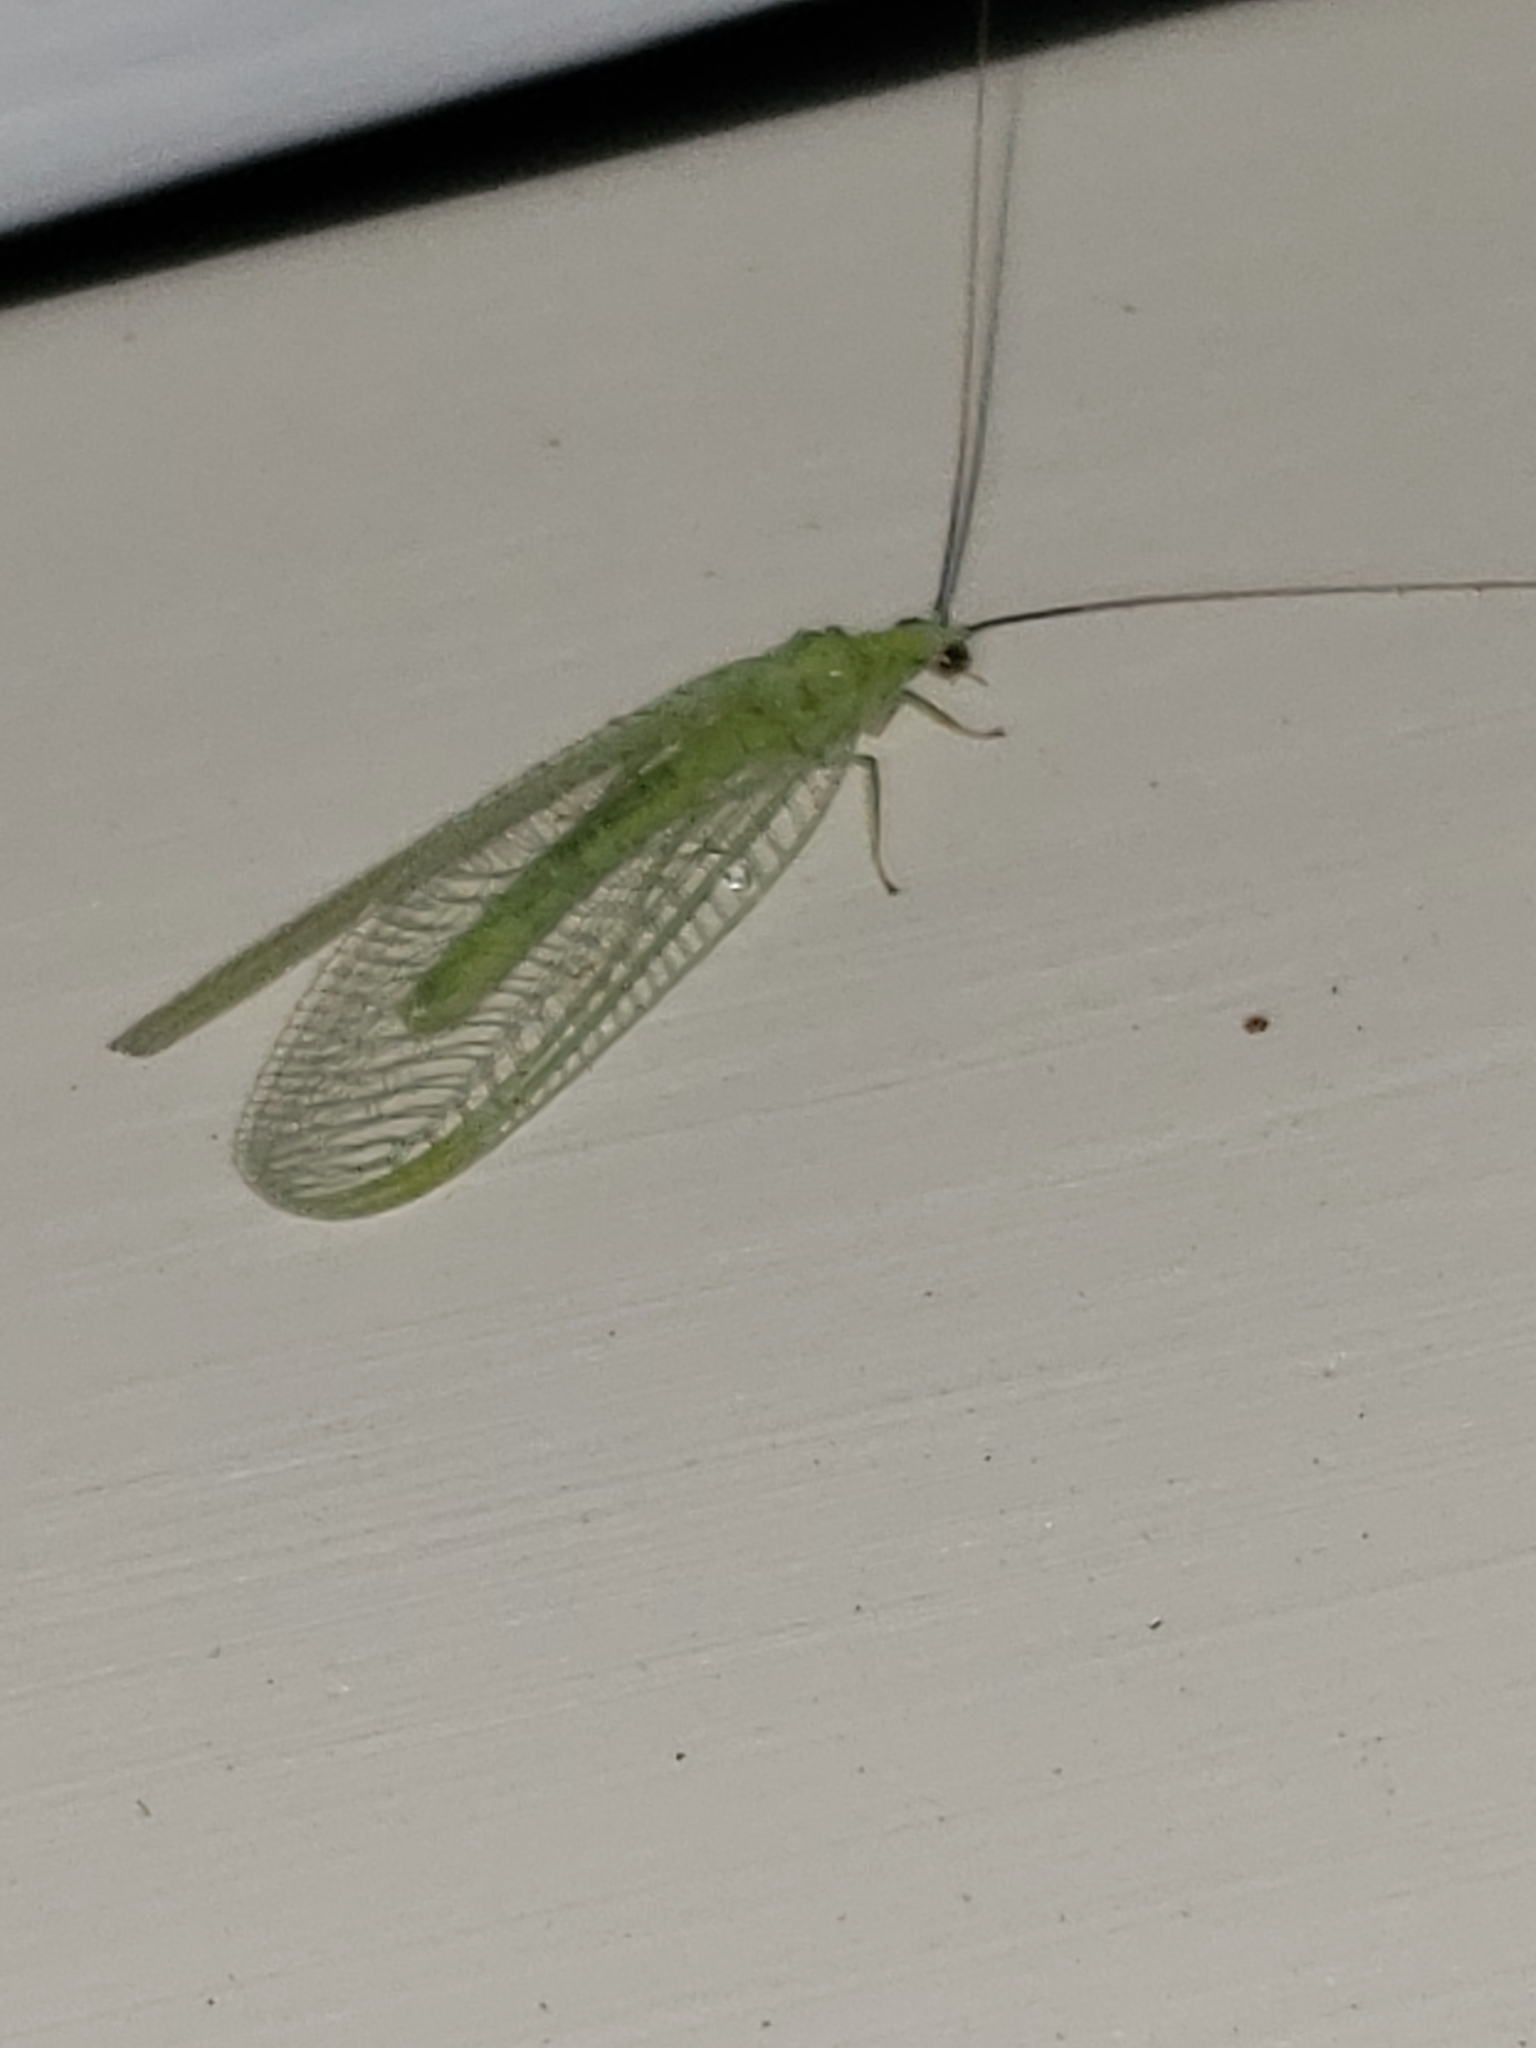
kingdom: Animalia
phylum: Arthropoda
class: Insecta
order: Neuroptera
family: Chrysopidae
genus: Chrysopa
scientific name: Chrysopa nigricornis
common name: Black-horned green lacewing
